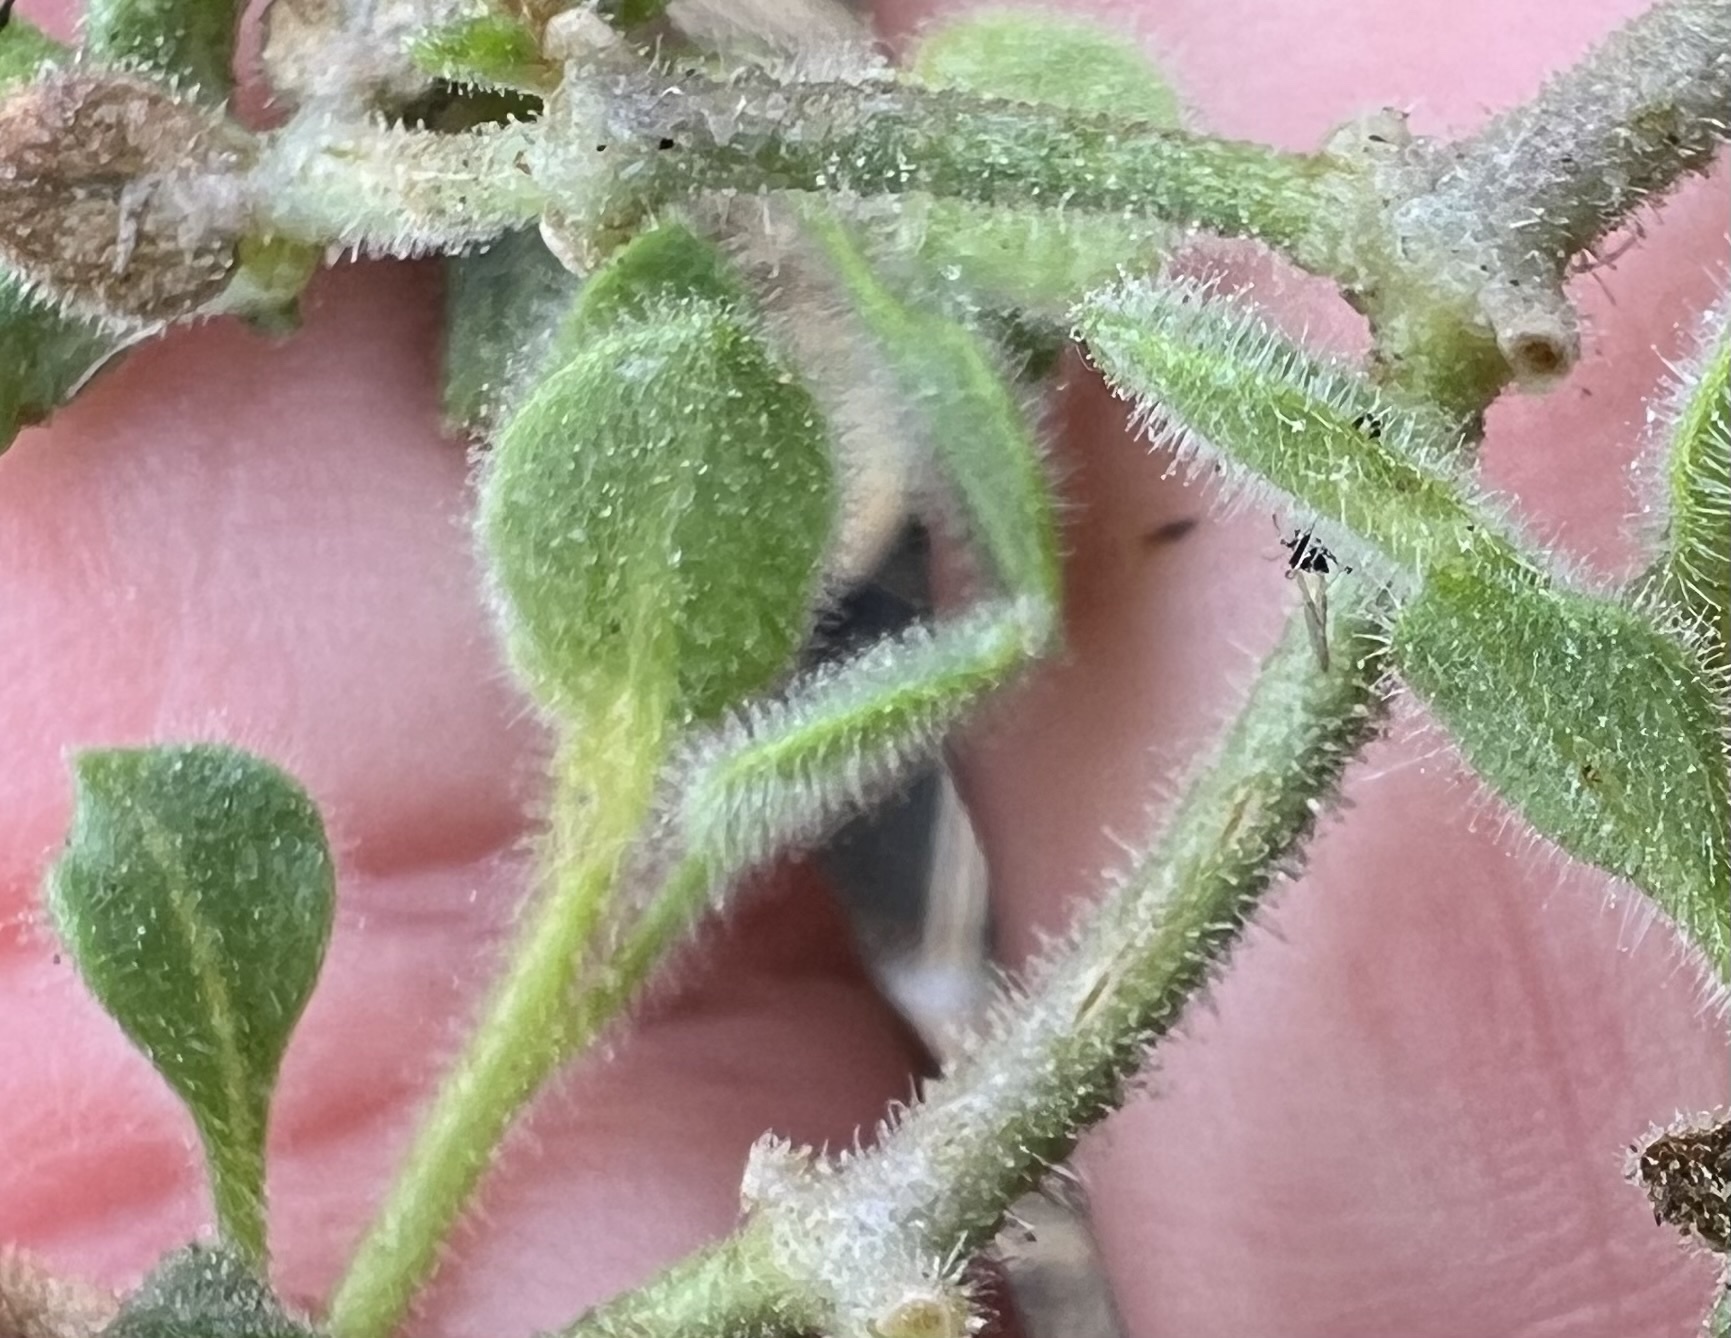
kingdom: Plantae
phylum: Tracheophyta
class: Magnoliopsida
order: Caryophyllales
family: Nyctaginaceae
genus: Mirabilis
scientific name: Mirabilis laevis
